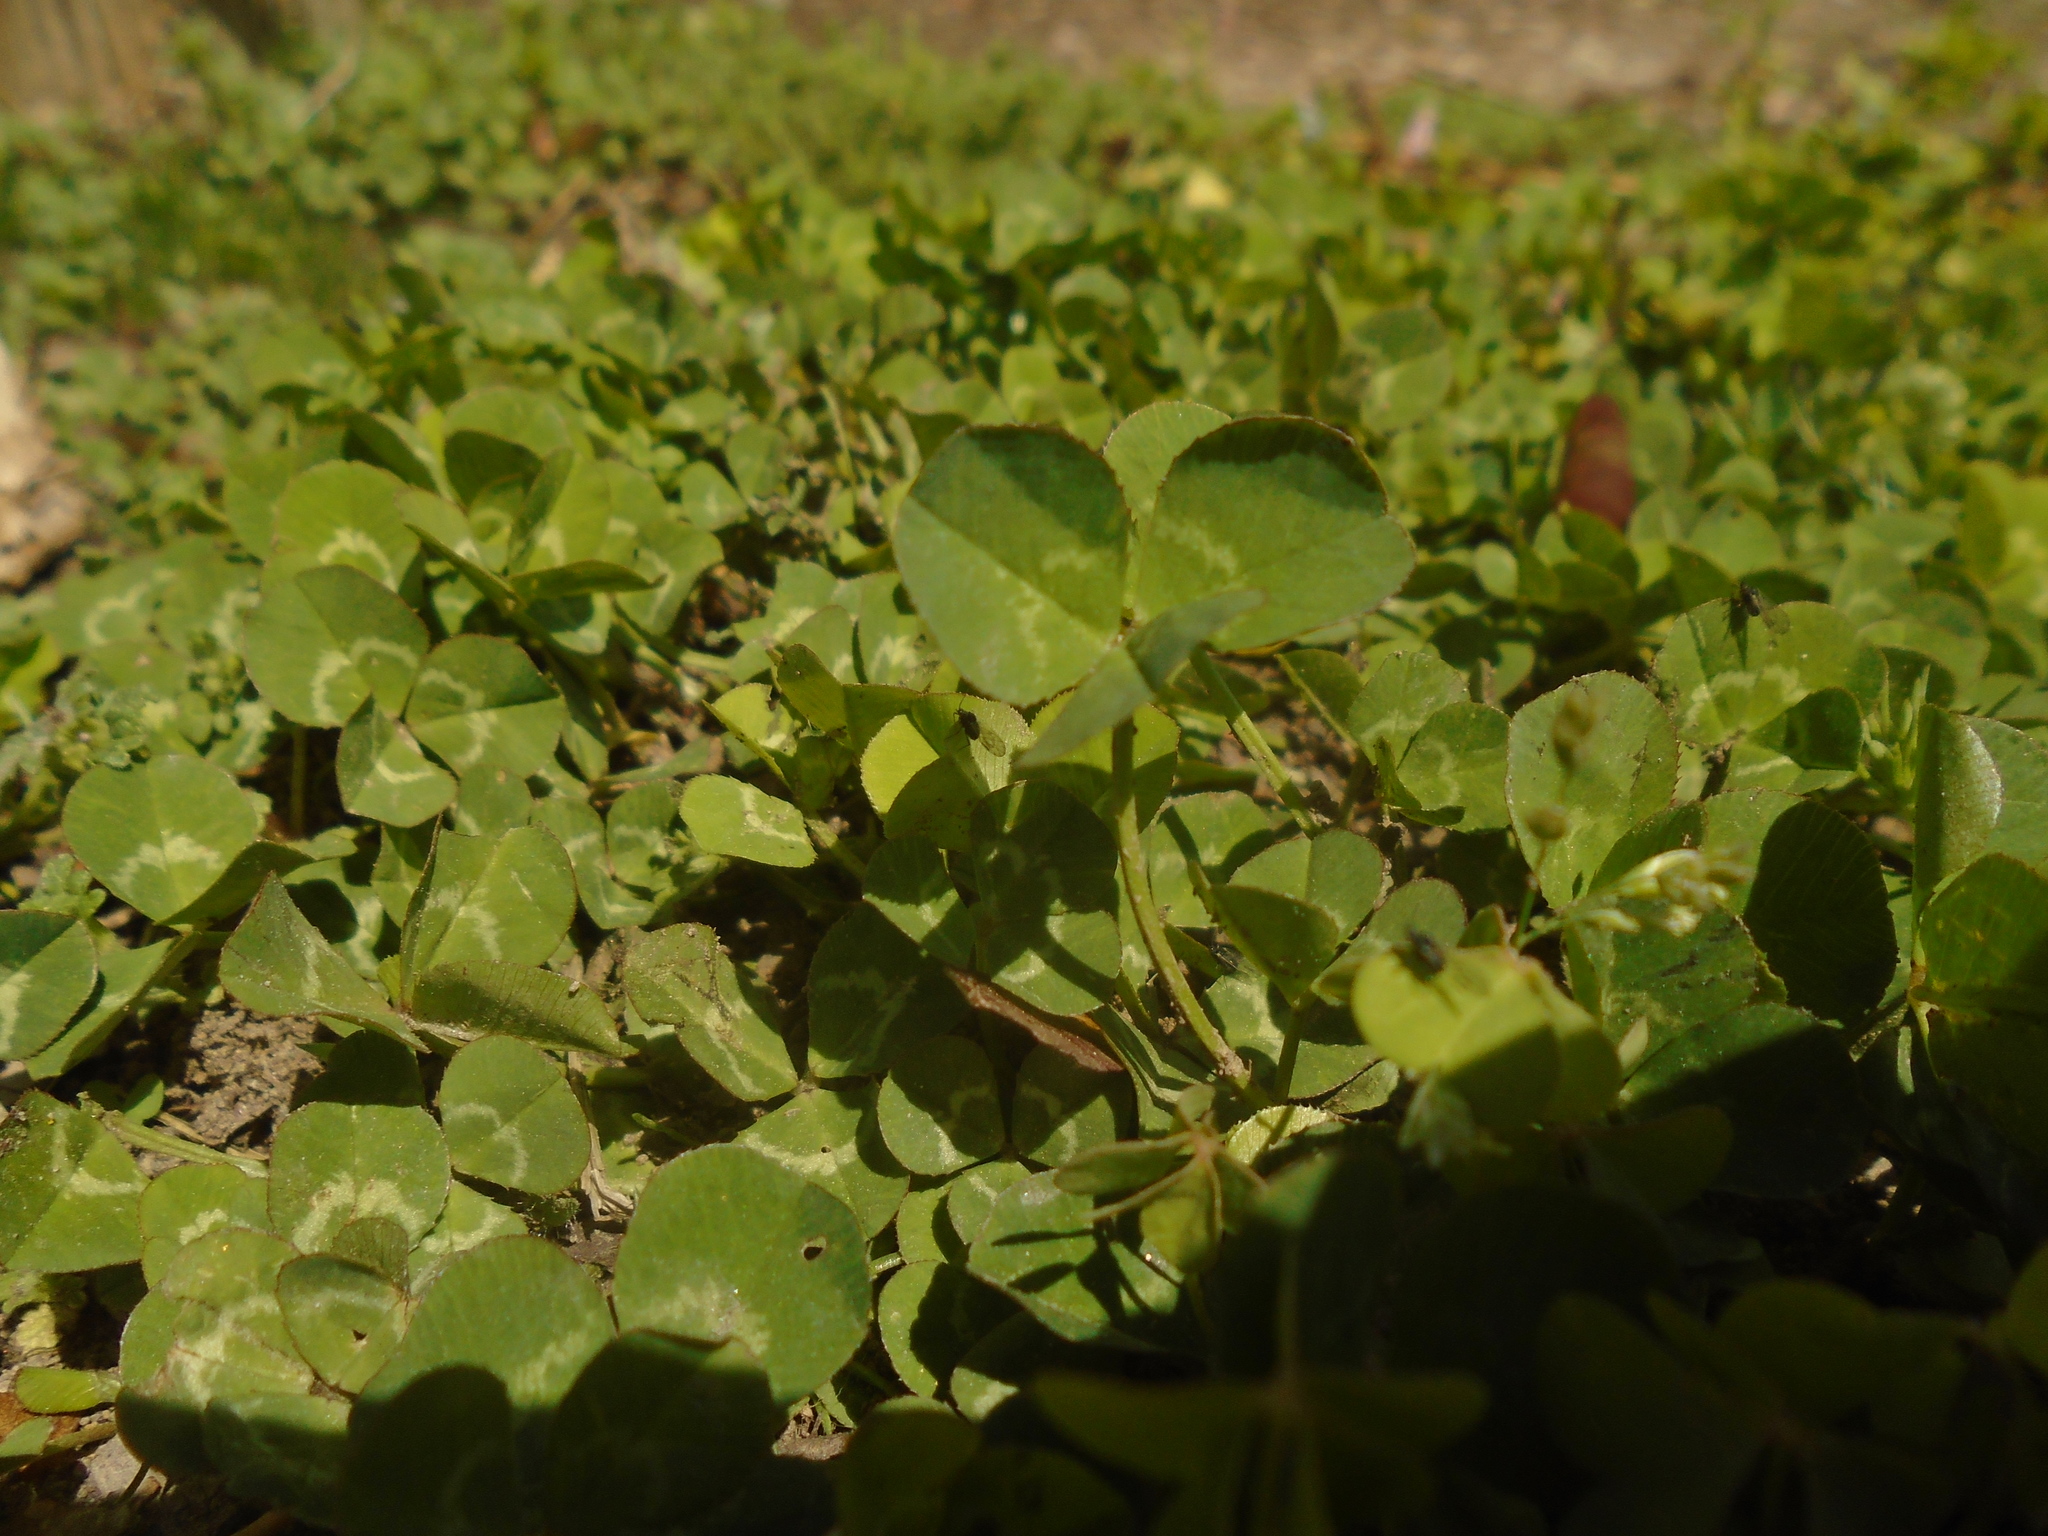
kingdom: Plantae
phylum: Tracheophyta
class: Magnoliopsida
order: Fabales
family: Fabaceae
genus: Trifolium
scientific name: Trifolium repens
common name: White clover
